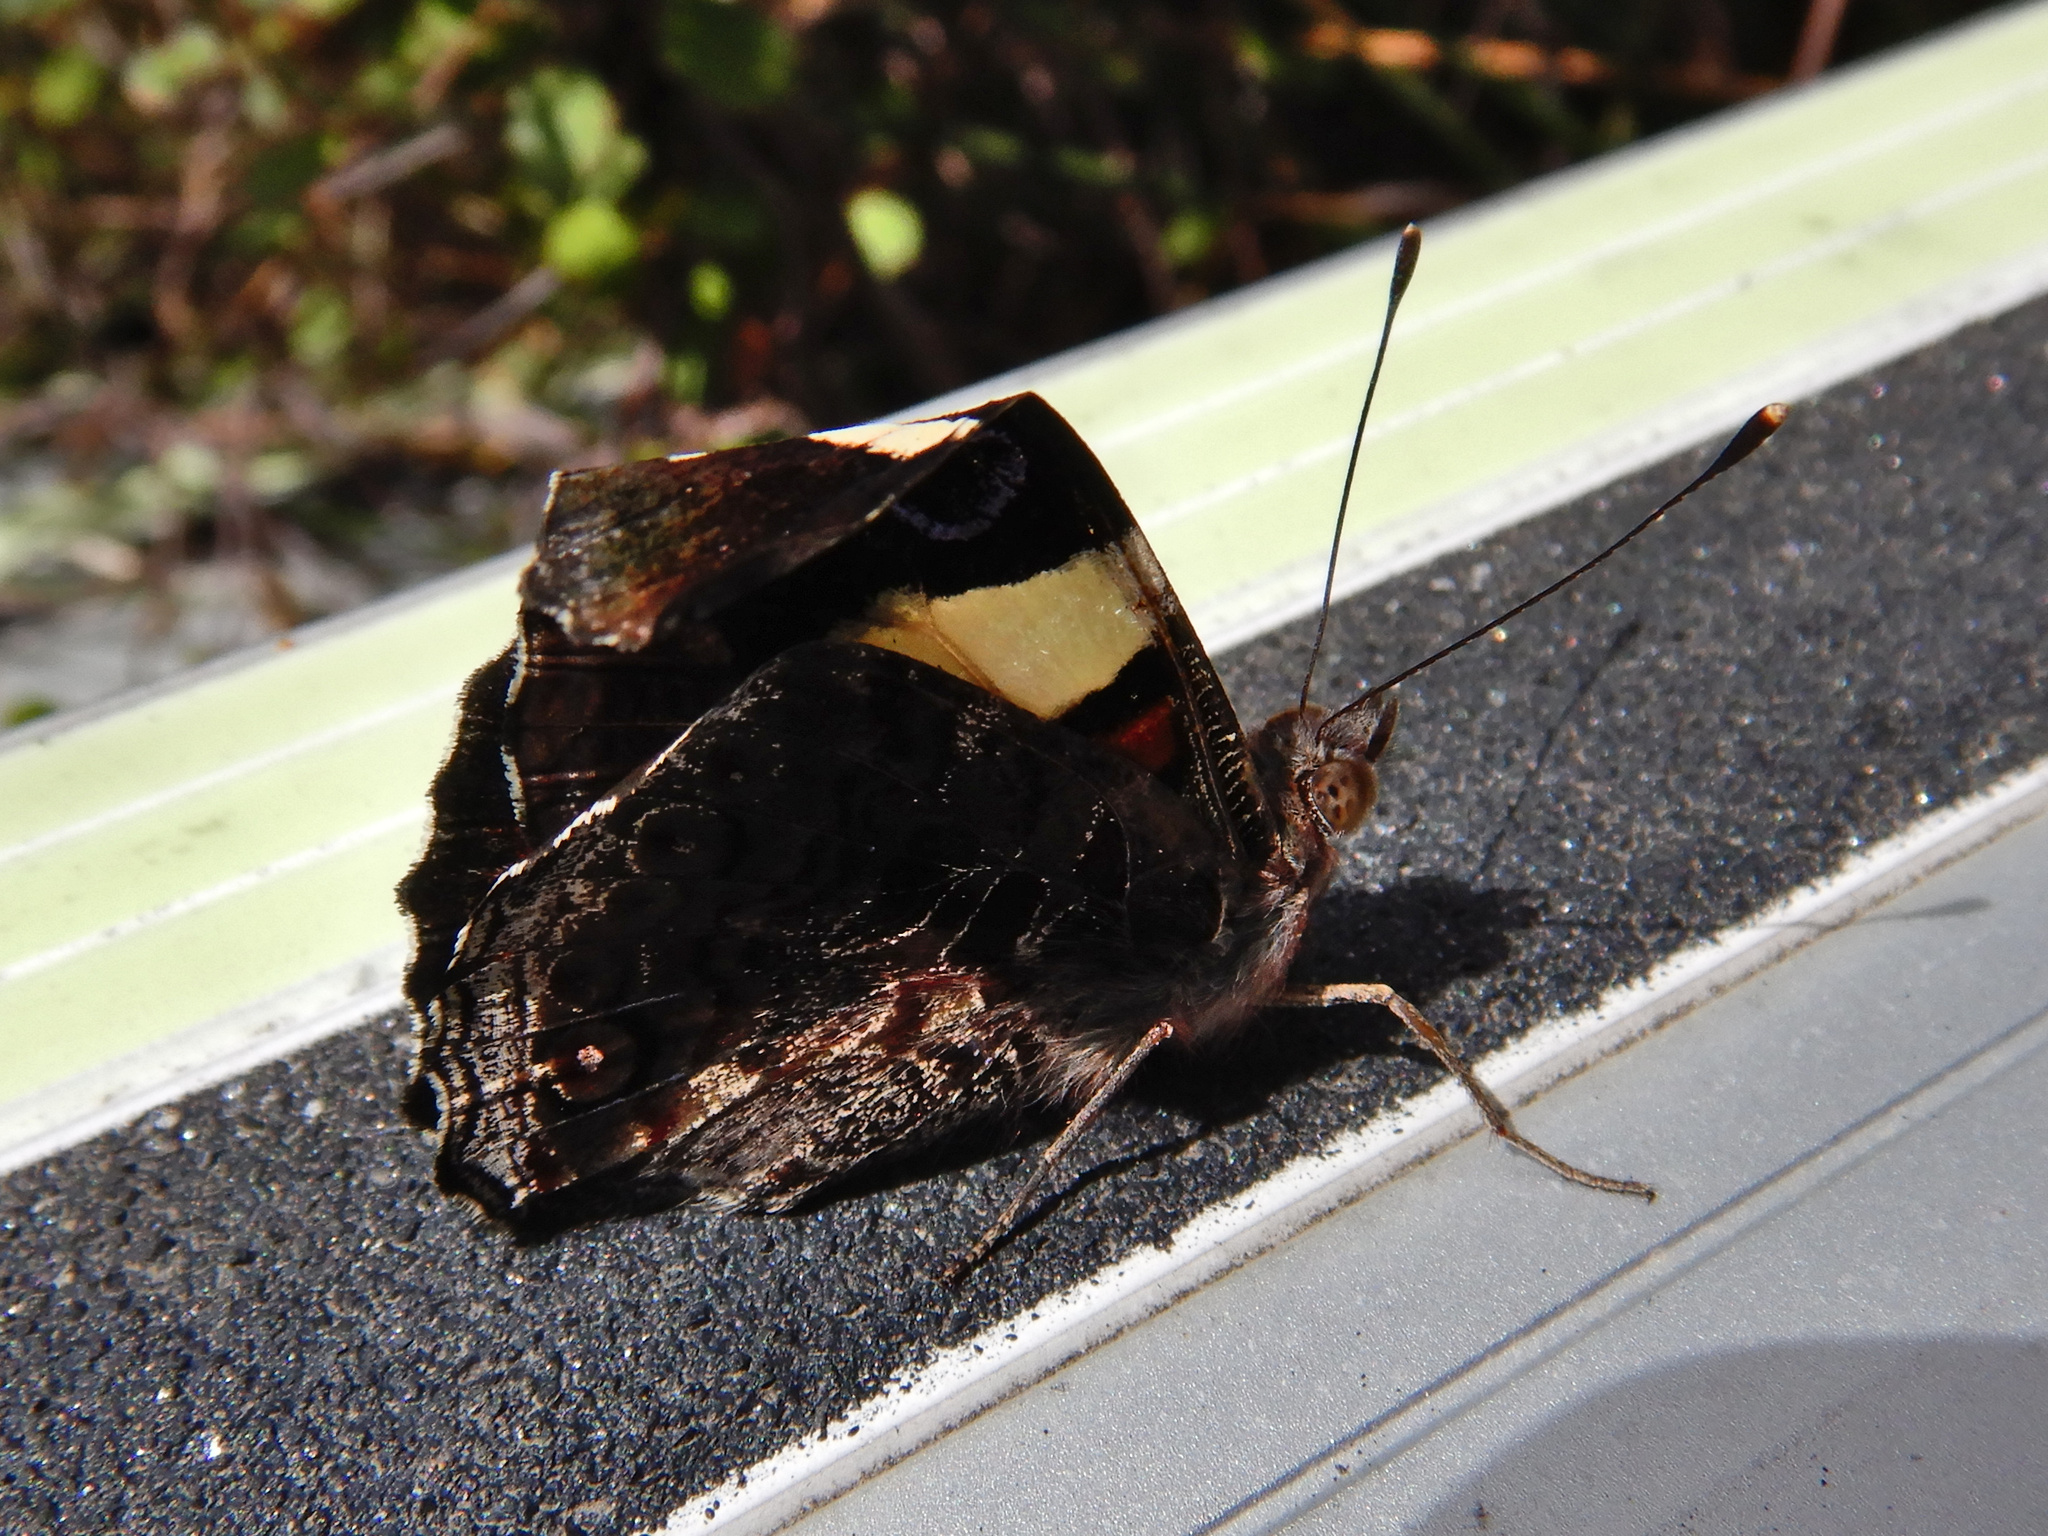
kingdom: Animalia
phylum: Arthropoda
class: Insecta
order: Lepidoptera
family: Nymphalidae
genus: Vanessa
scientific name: Vanessa itea
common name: Yellow admiral
